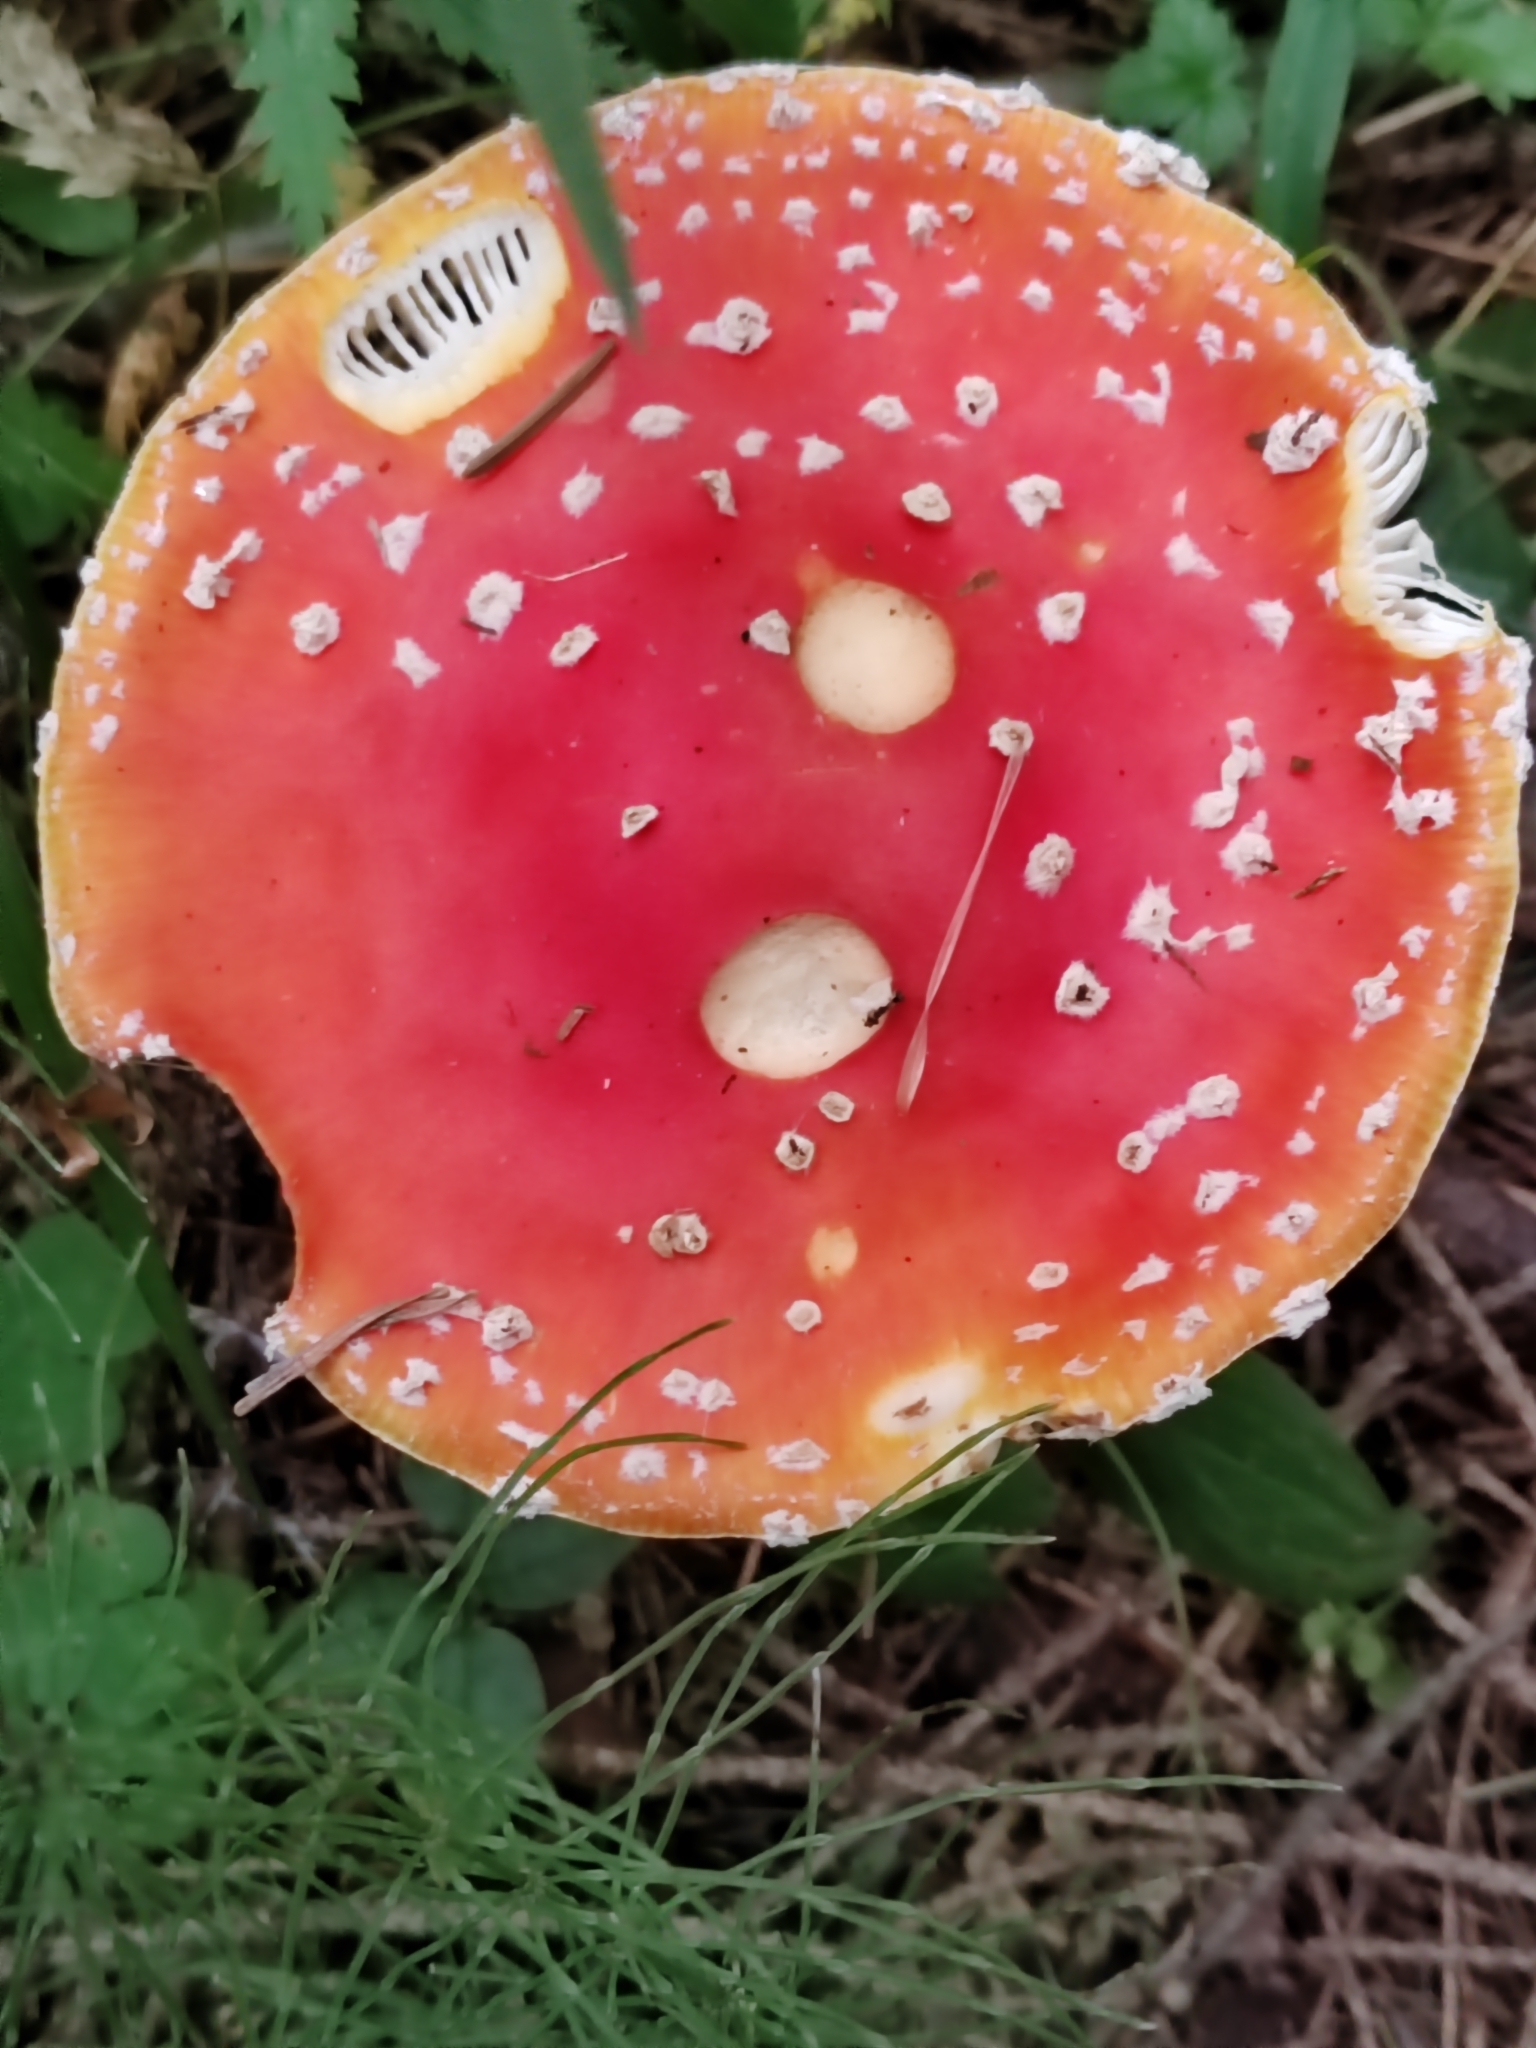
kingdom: Fungi
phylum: Basidiomycota
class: Agaricomycetes
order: Agaricales
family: Amanitaceae
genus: Amanita
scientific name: Amanita muscaria
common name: Fly agaric
